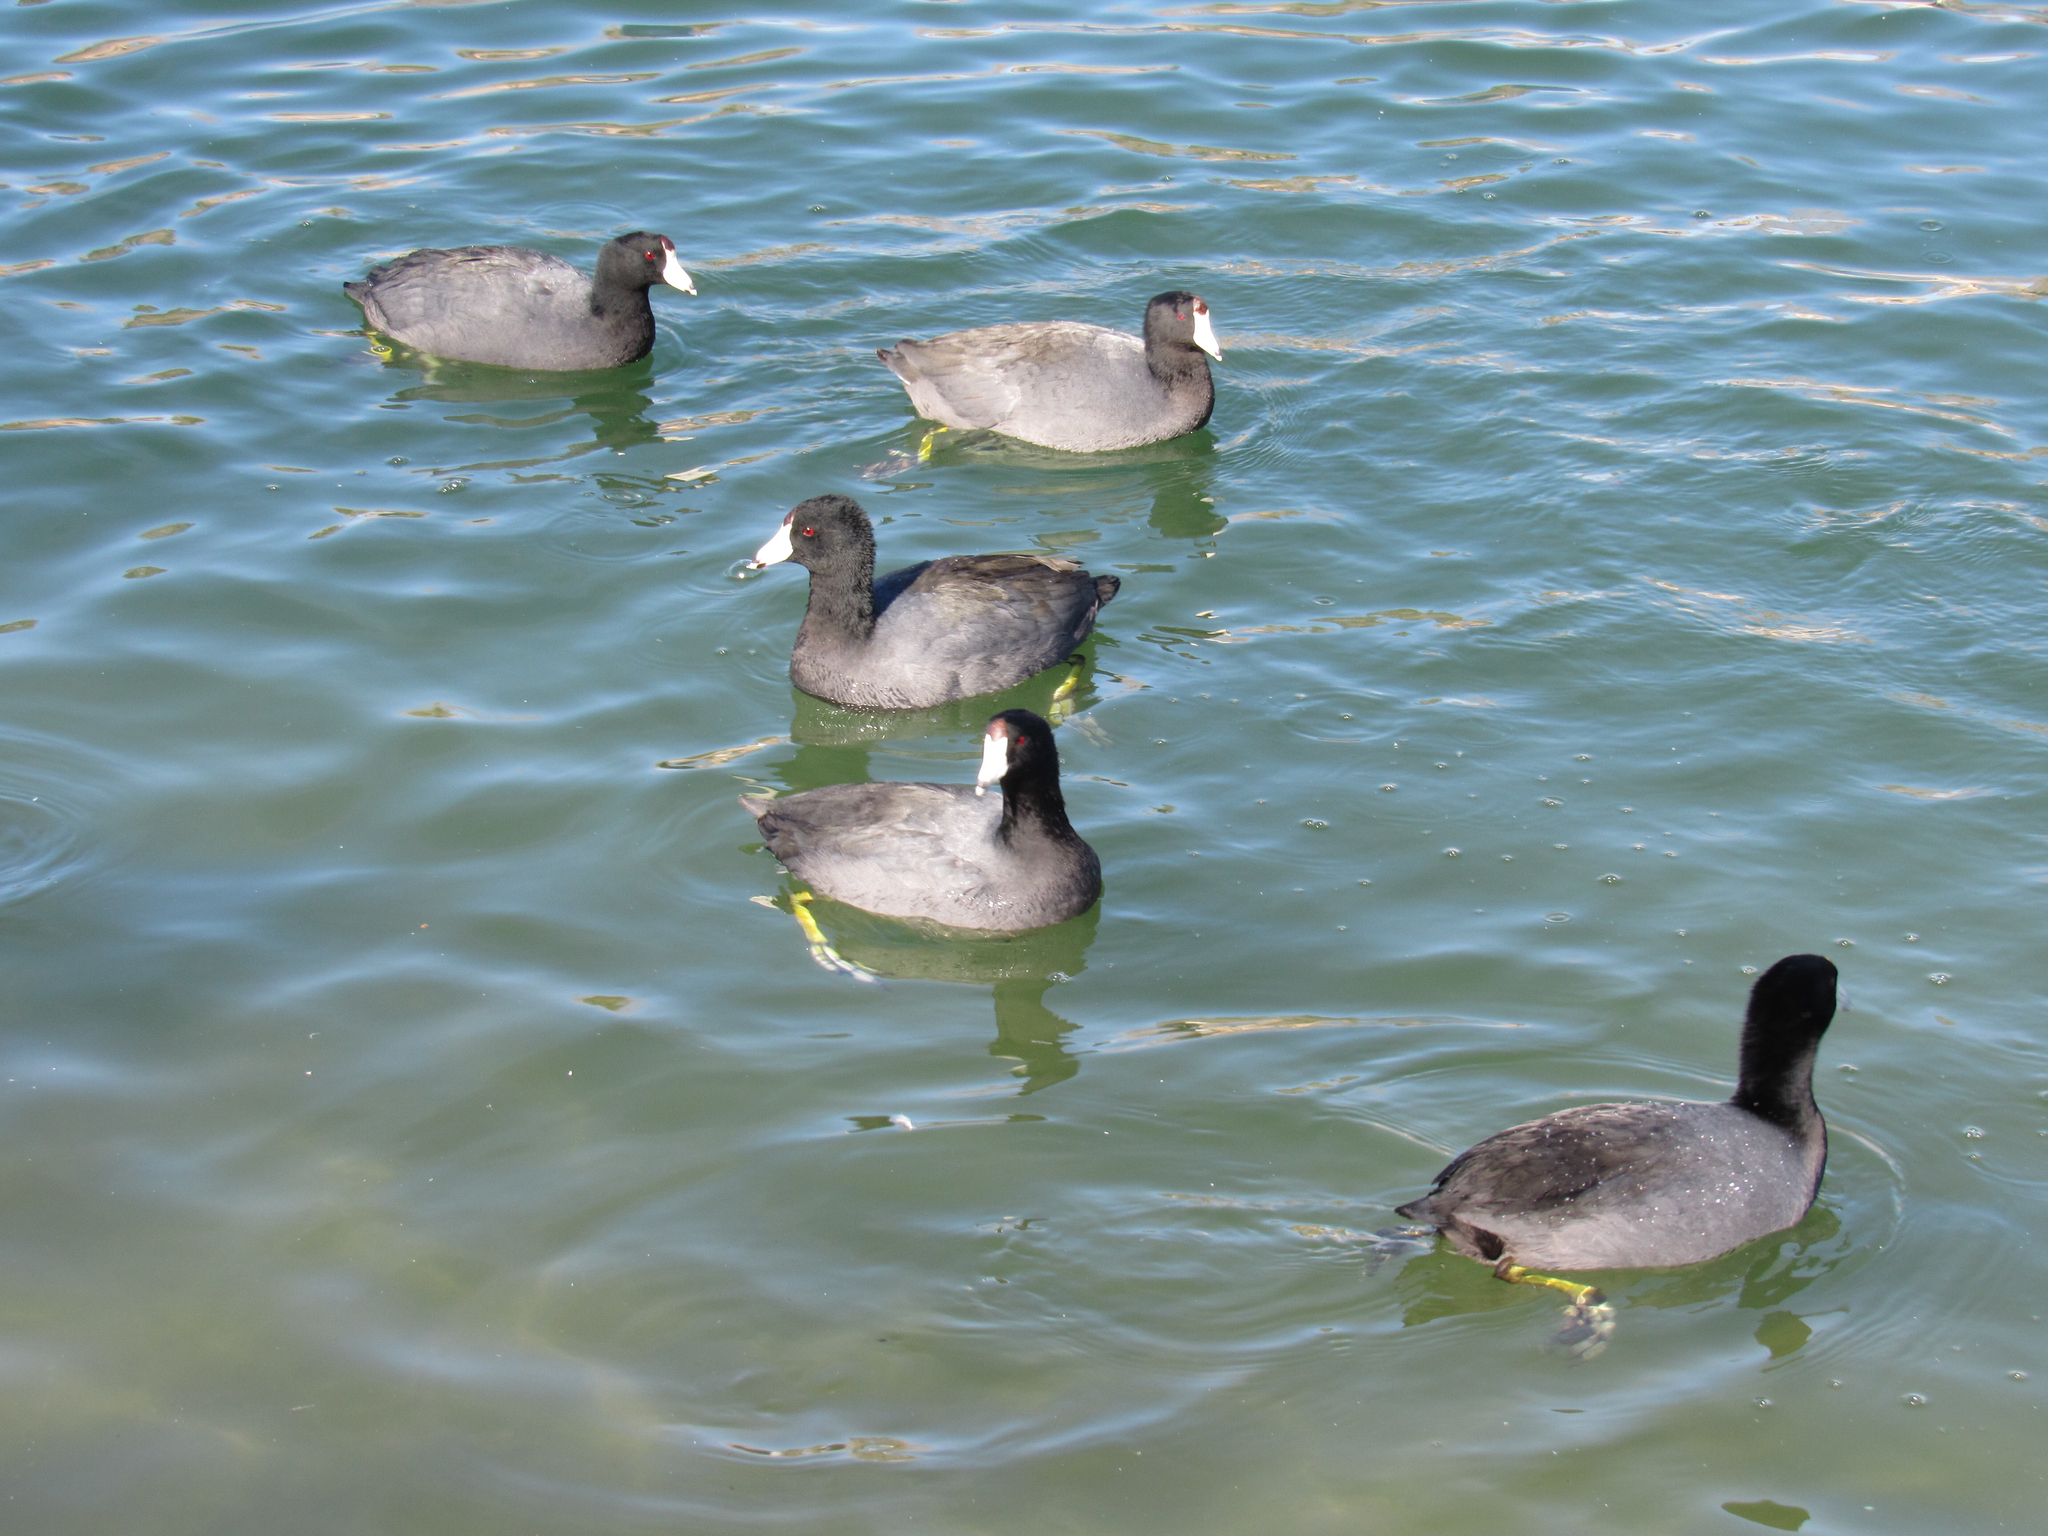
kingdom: Animalia
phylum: Chordata
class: Aves
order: Gruiformes
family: Rallidae
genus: Fulica
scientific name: Fulica americana
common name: American coot
